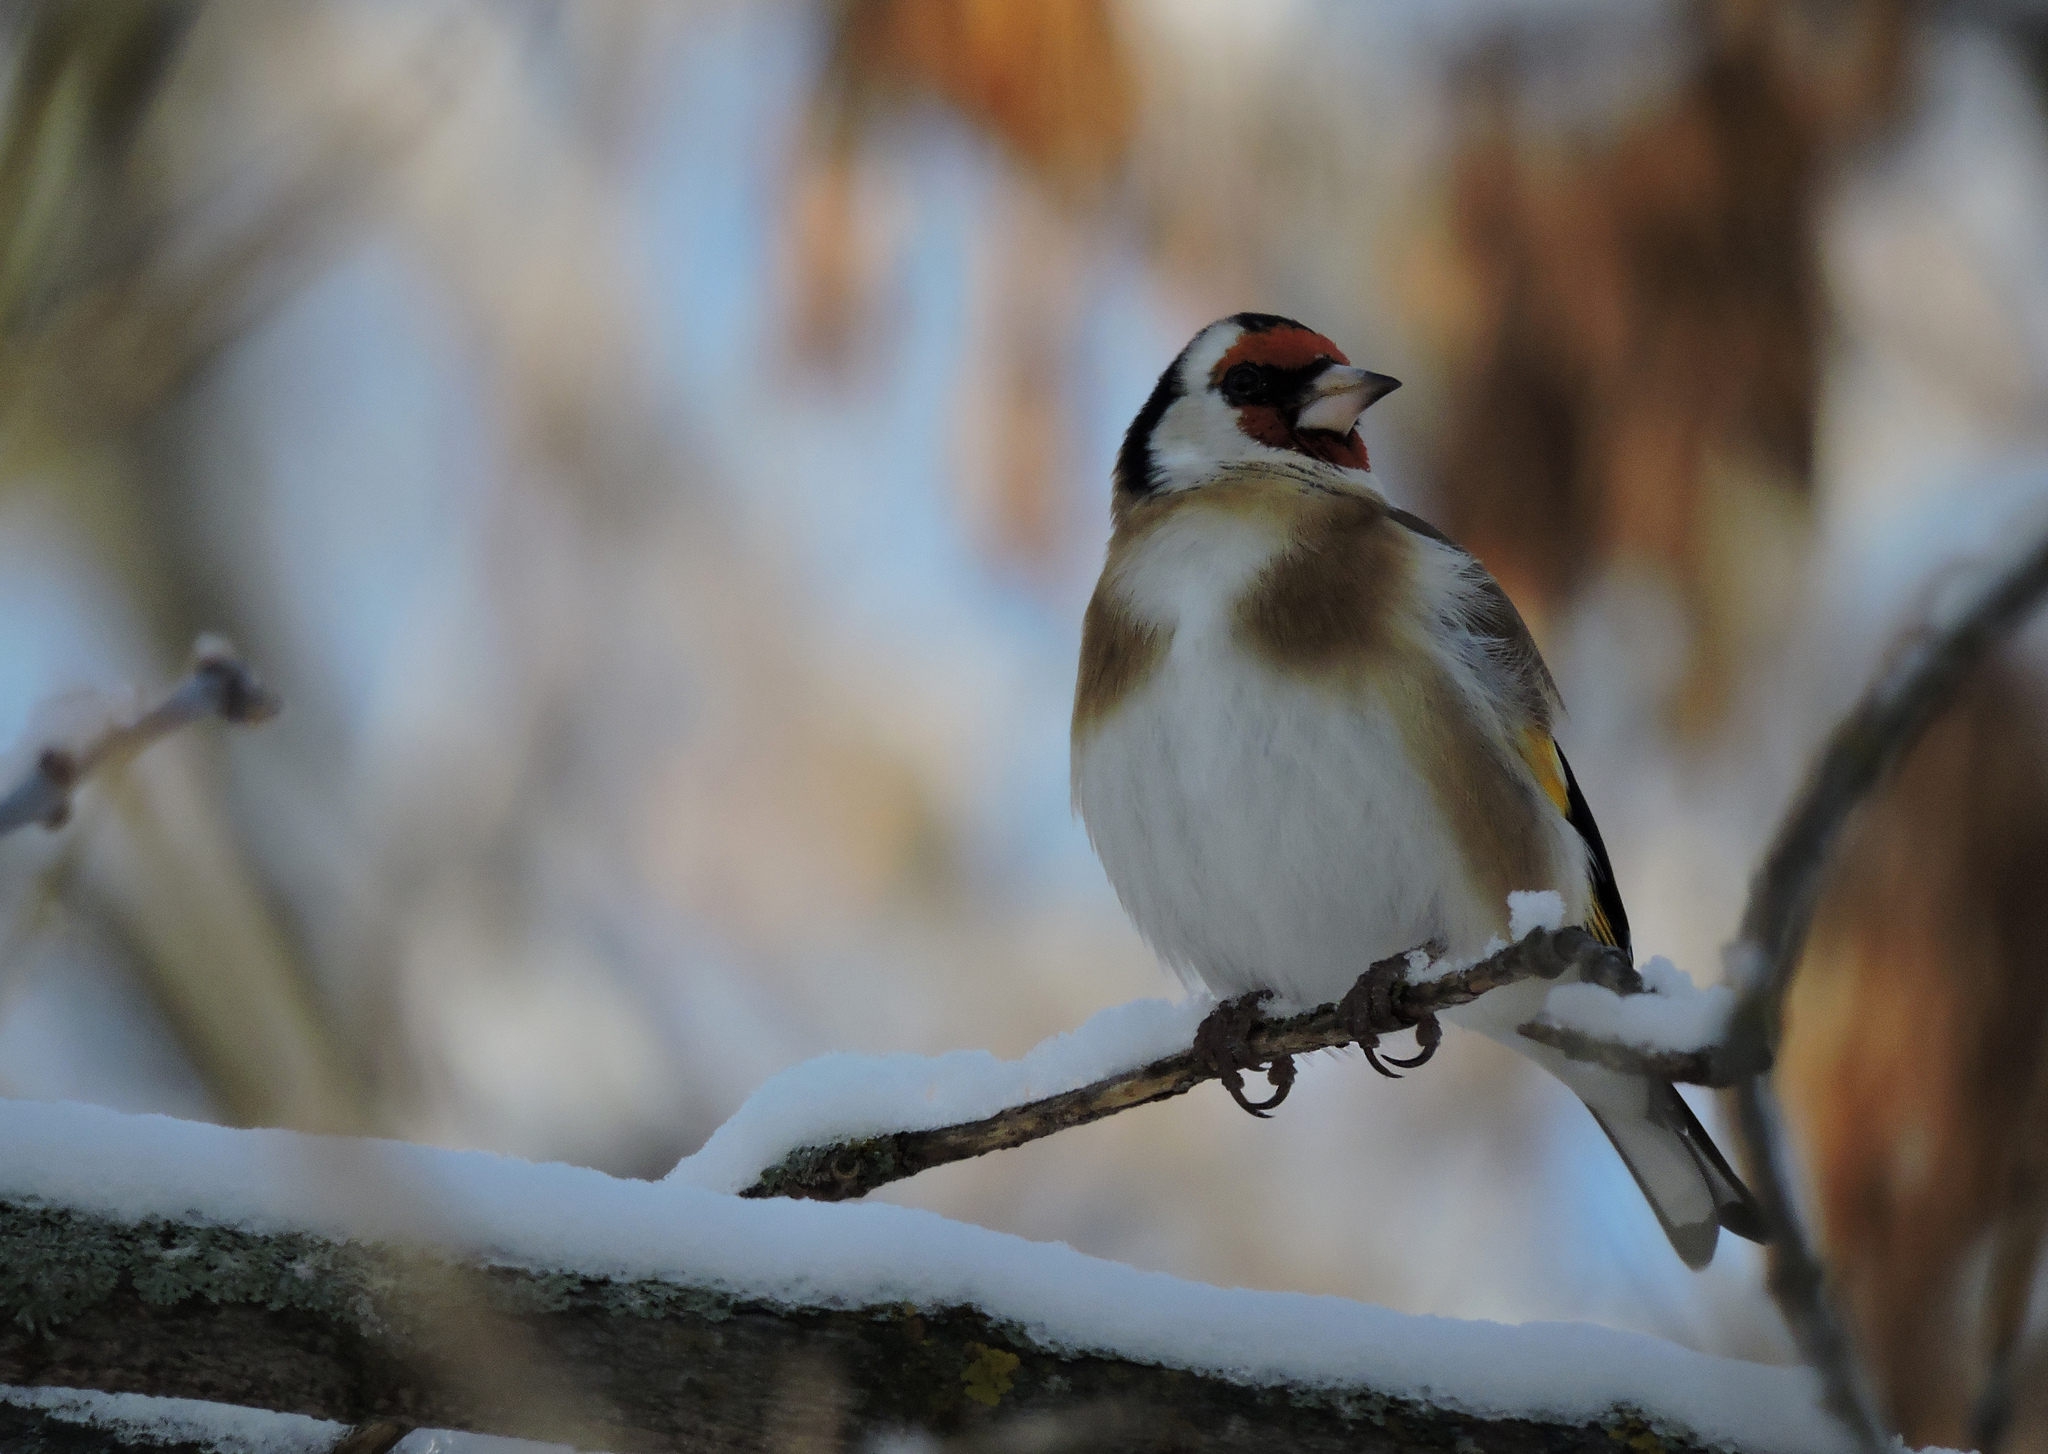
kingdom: Animalia
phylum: Chordata
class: Aves
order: Passeriformes
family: Fringillidae
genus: Carduelis
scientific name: Carduelis carduelis
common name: European goldfinch
